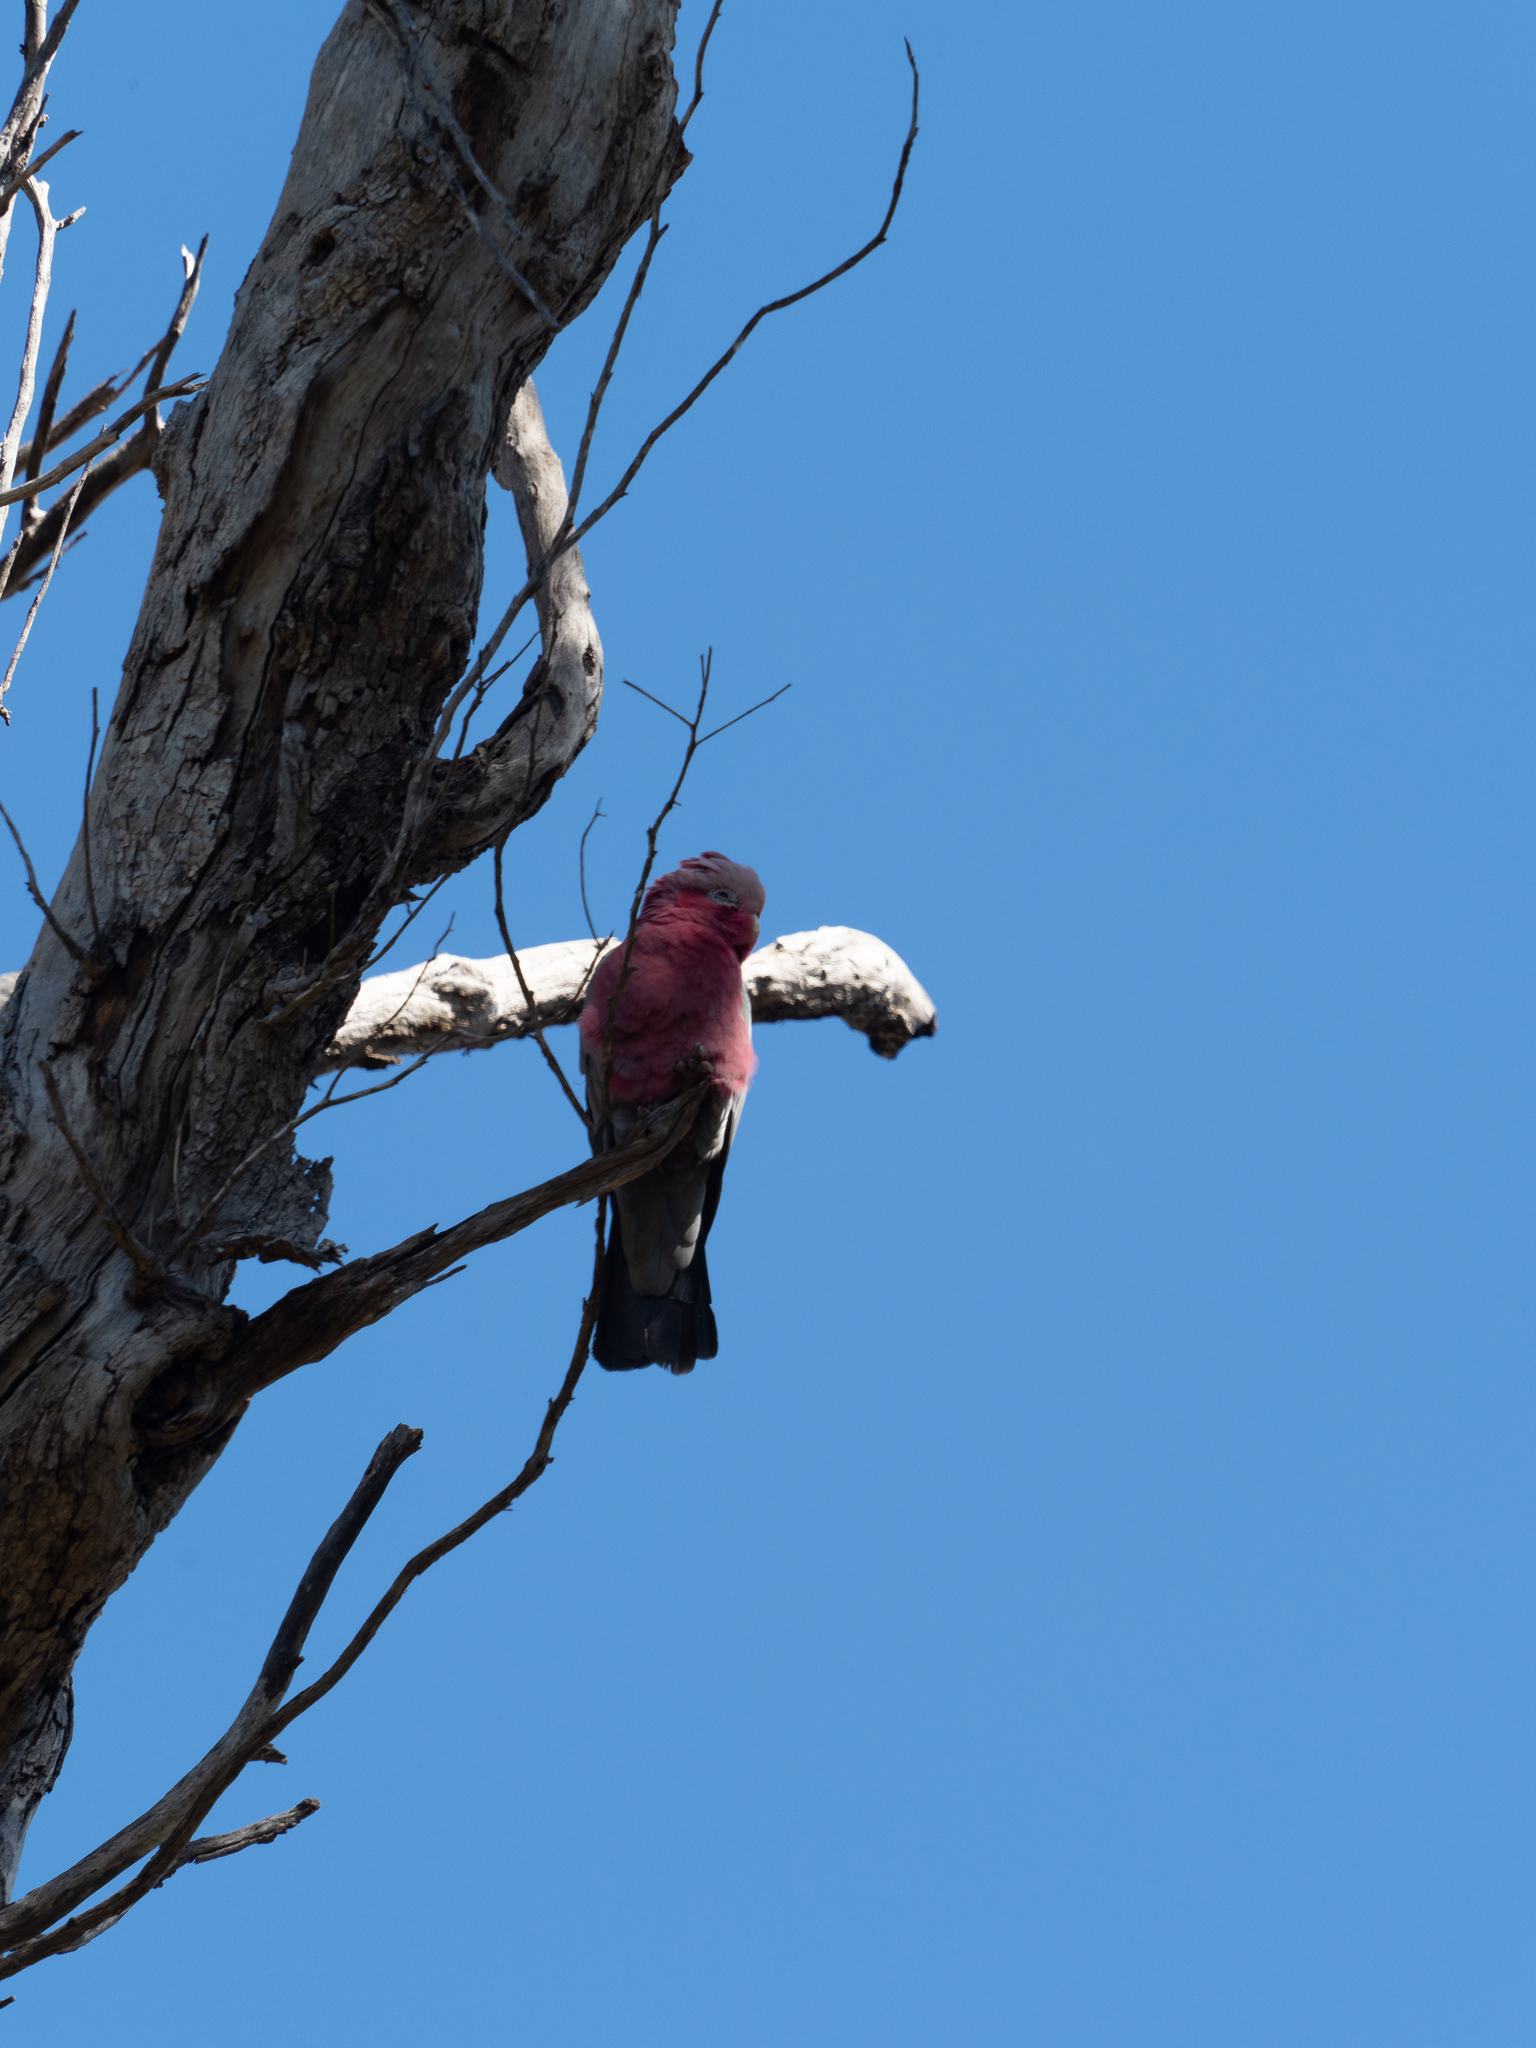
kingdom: Animalia
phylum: Chordata
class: Aves
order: Psittaciformes
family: Psittacidae
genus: Eolophus
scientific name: Eolophus roseicapilla
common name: Galah
